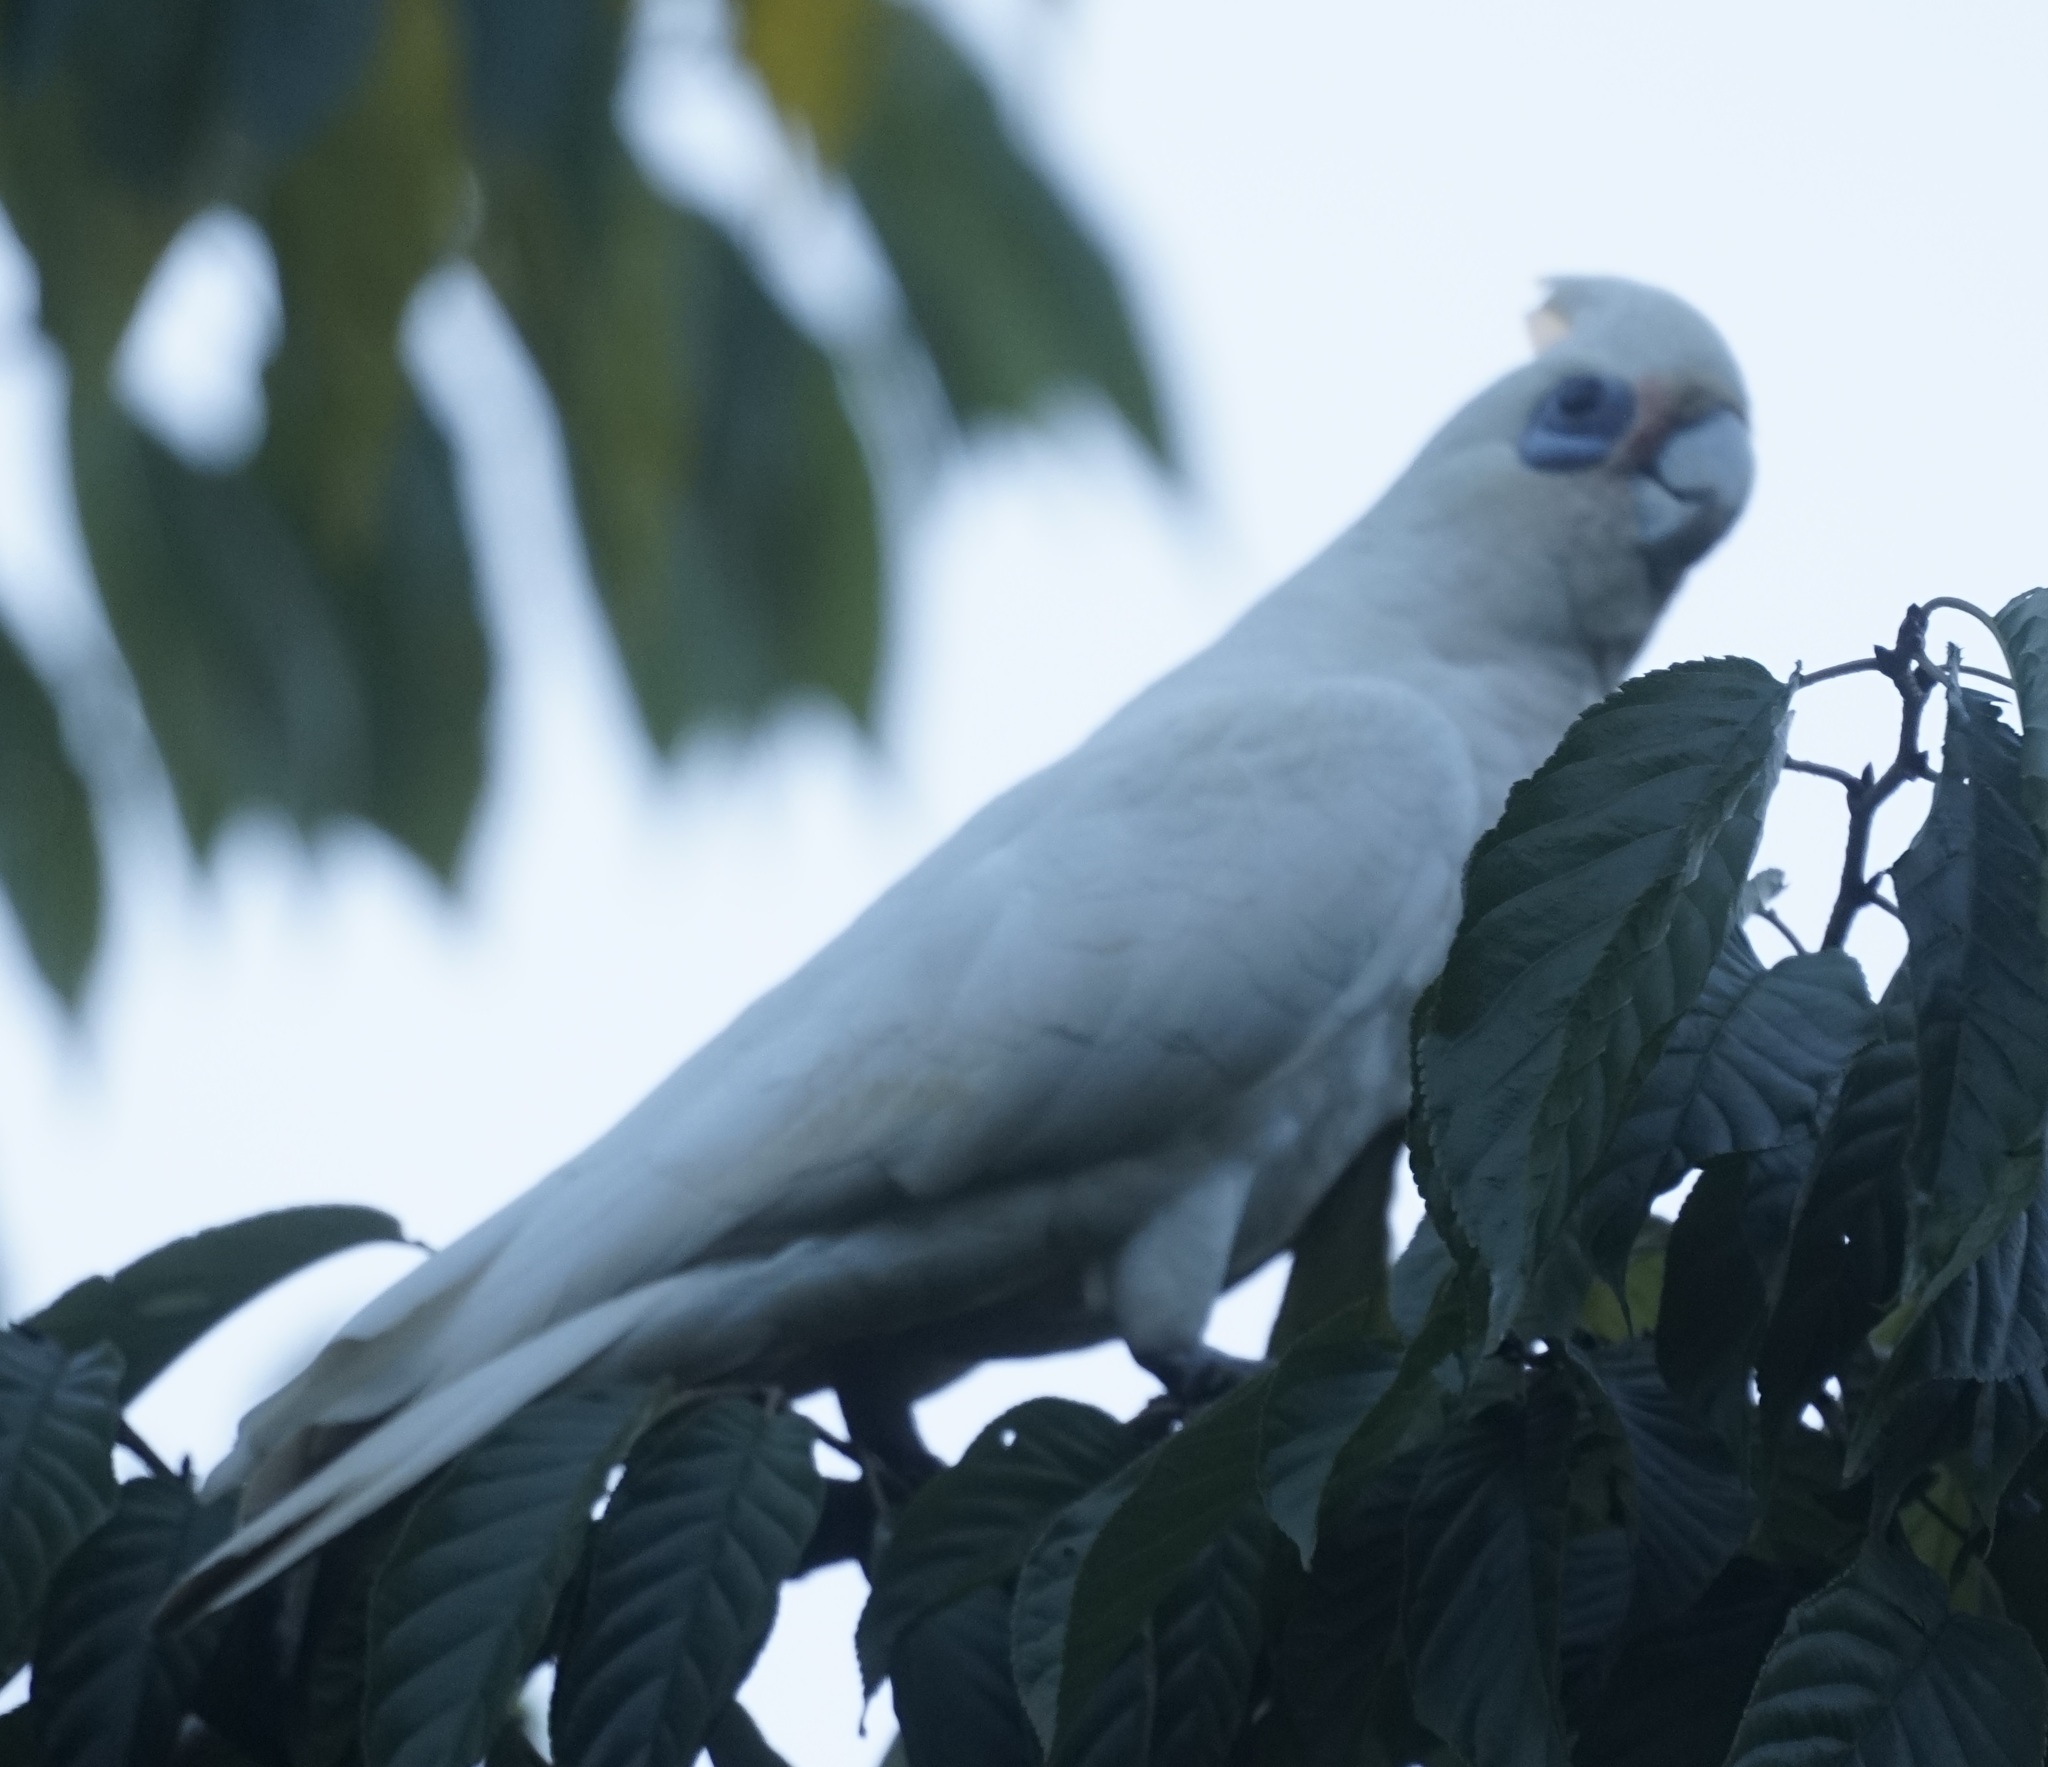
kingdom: Animalia
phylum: Chordata
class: Aves
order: Psittaciformes
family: Psittacidae
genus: Cacatua
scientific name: Cacatua sanguinea
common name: Little corella
